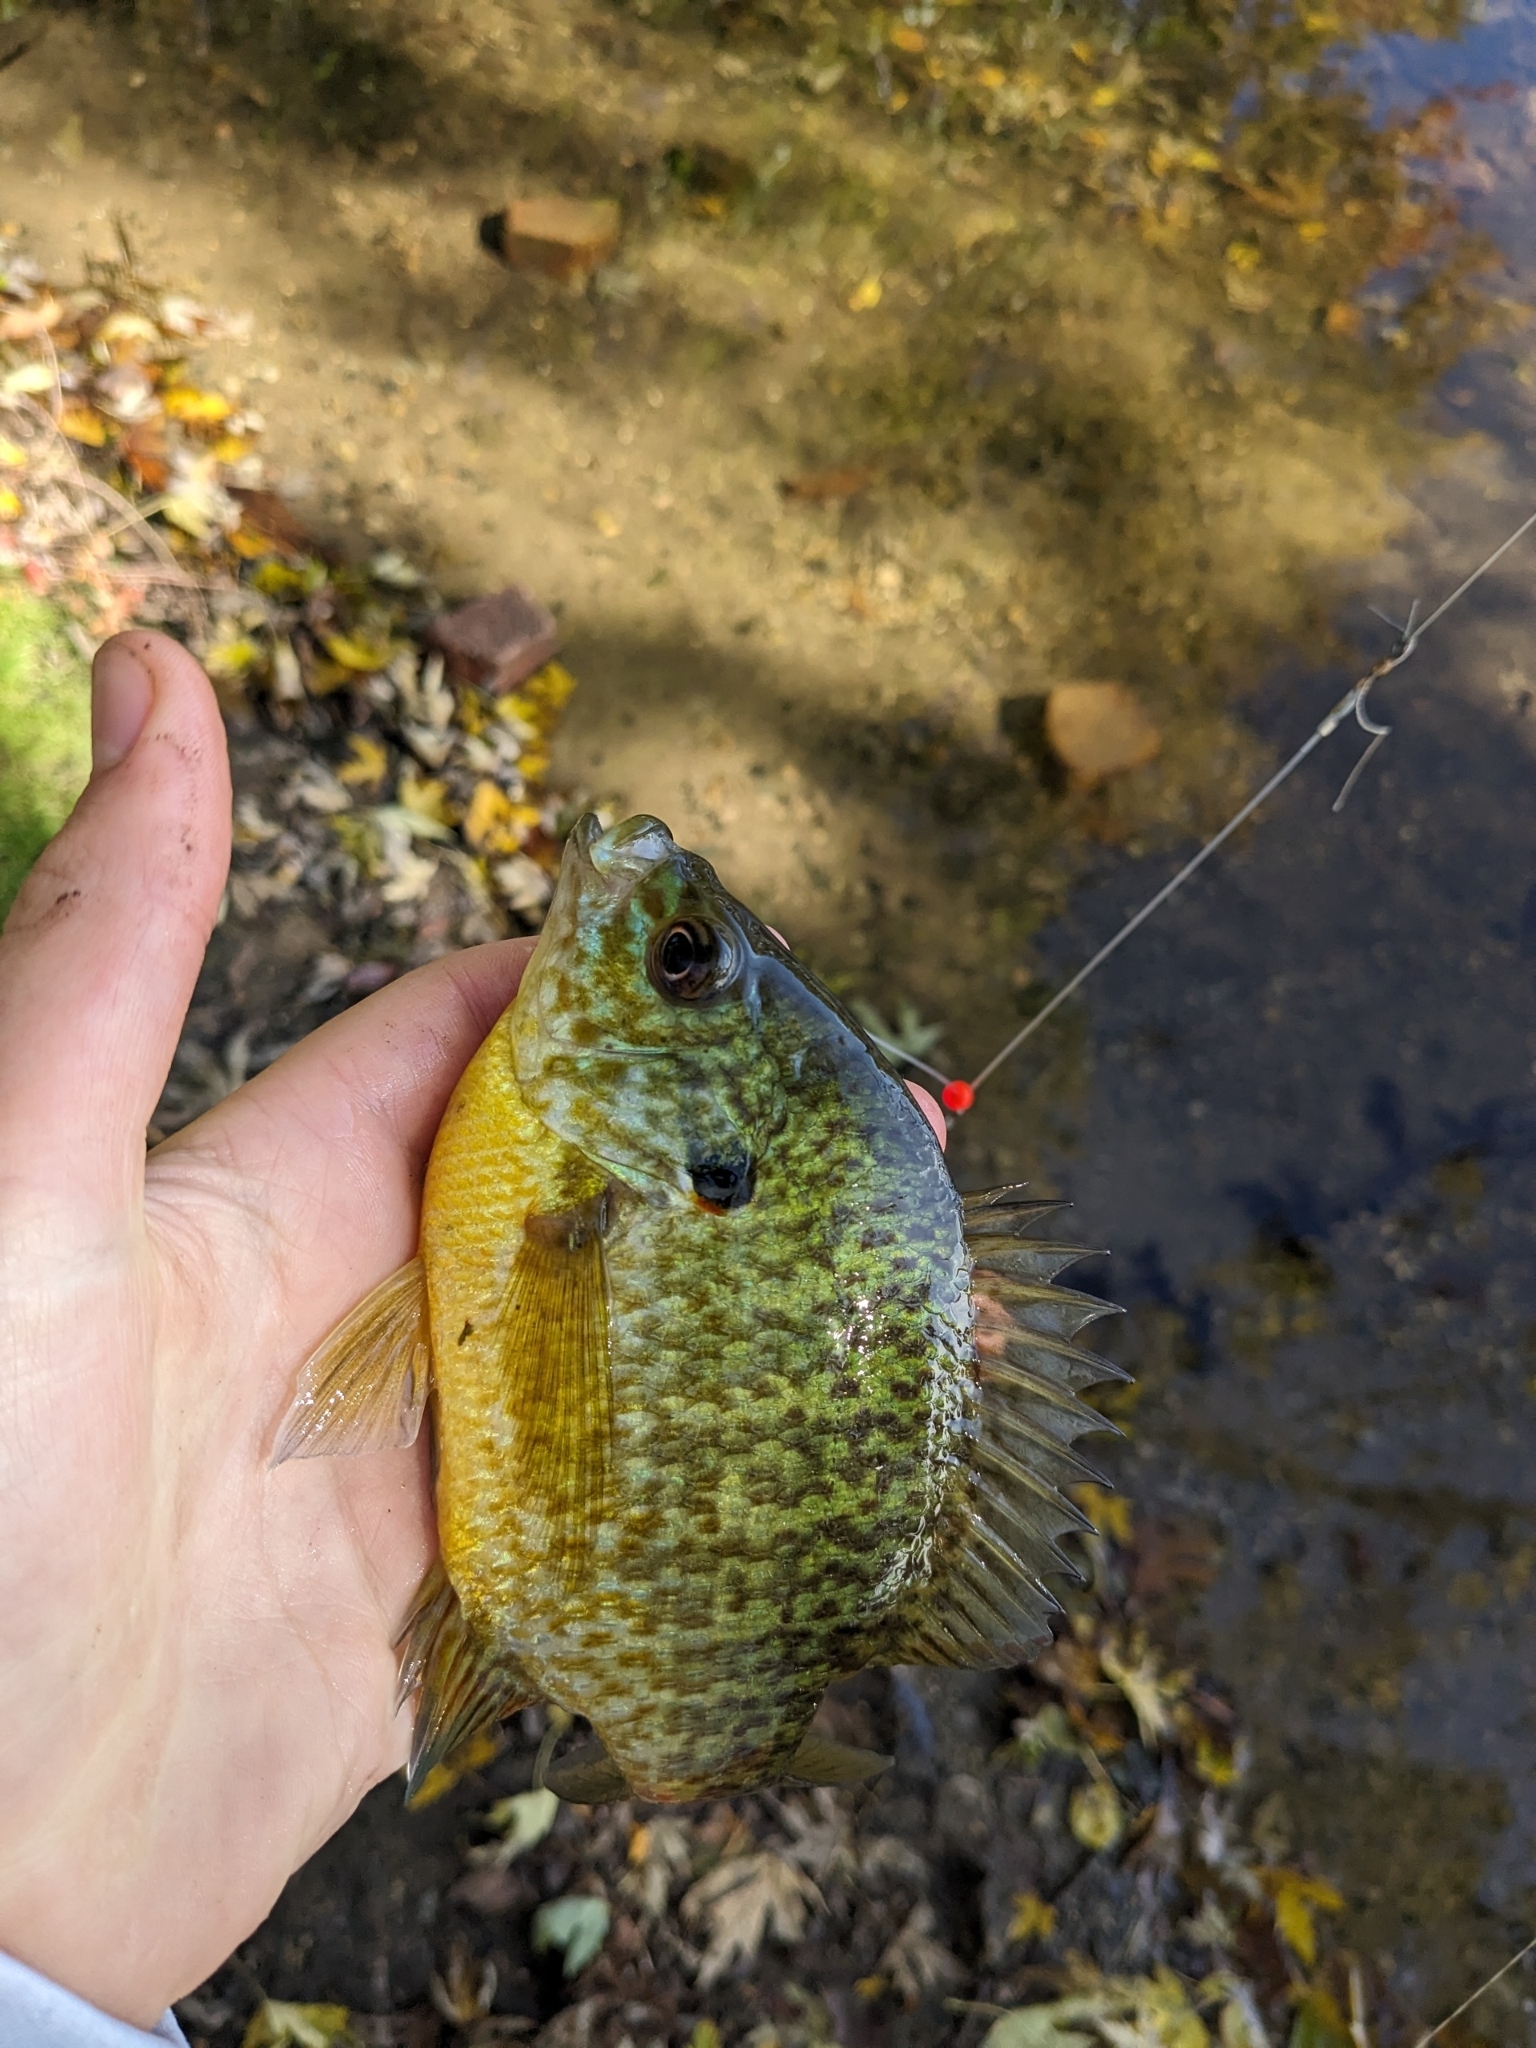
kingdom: Animalia
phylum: Chordata
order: Perciformes
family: Centrarchidae
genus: Lepomis
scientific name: Lepomis
